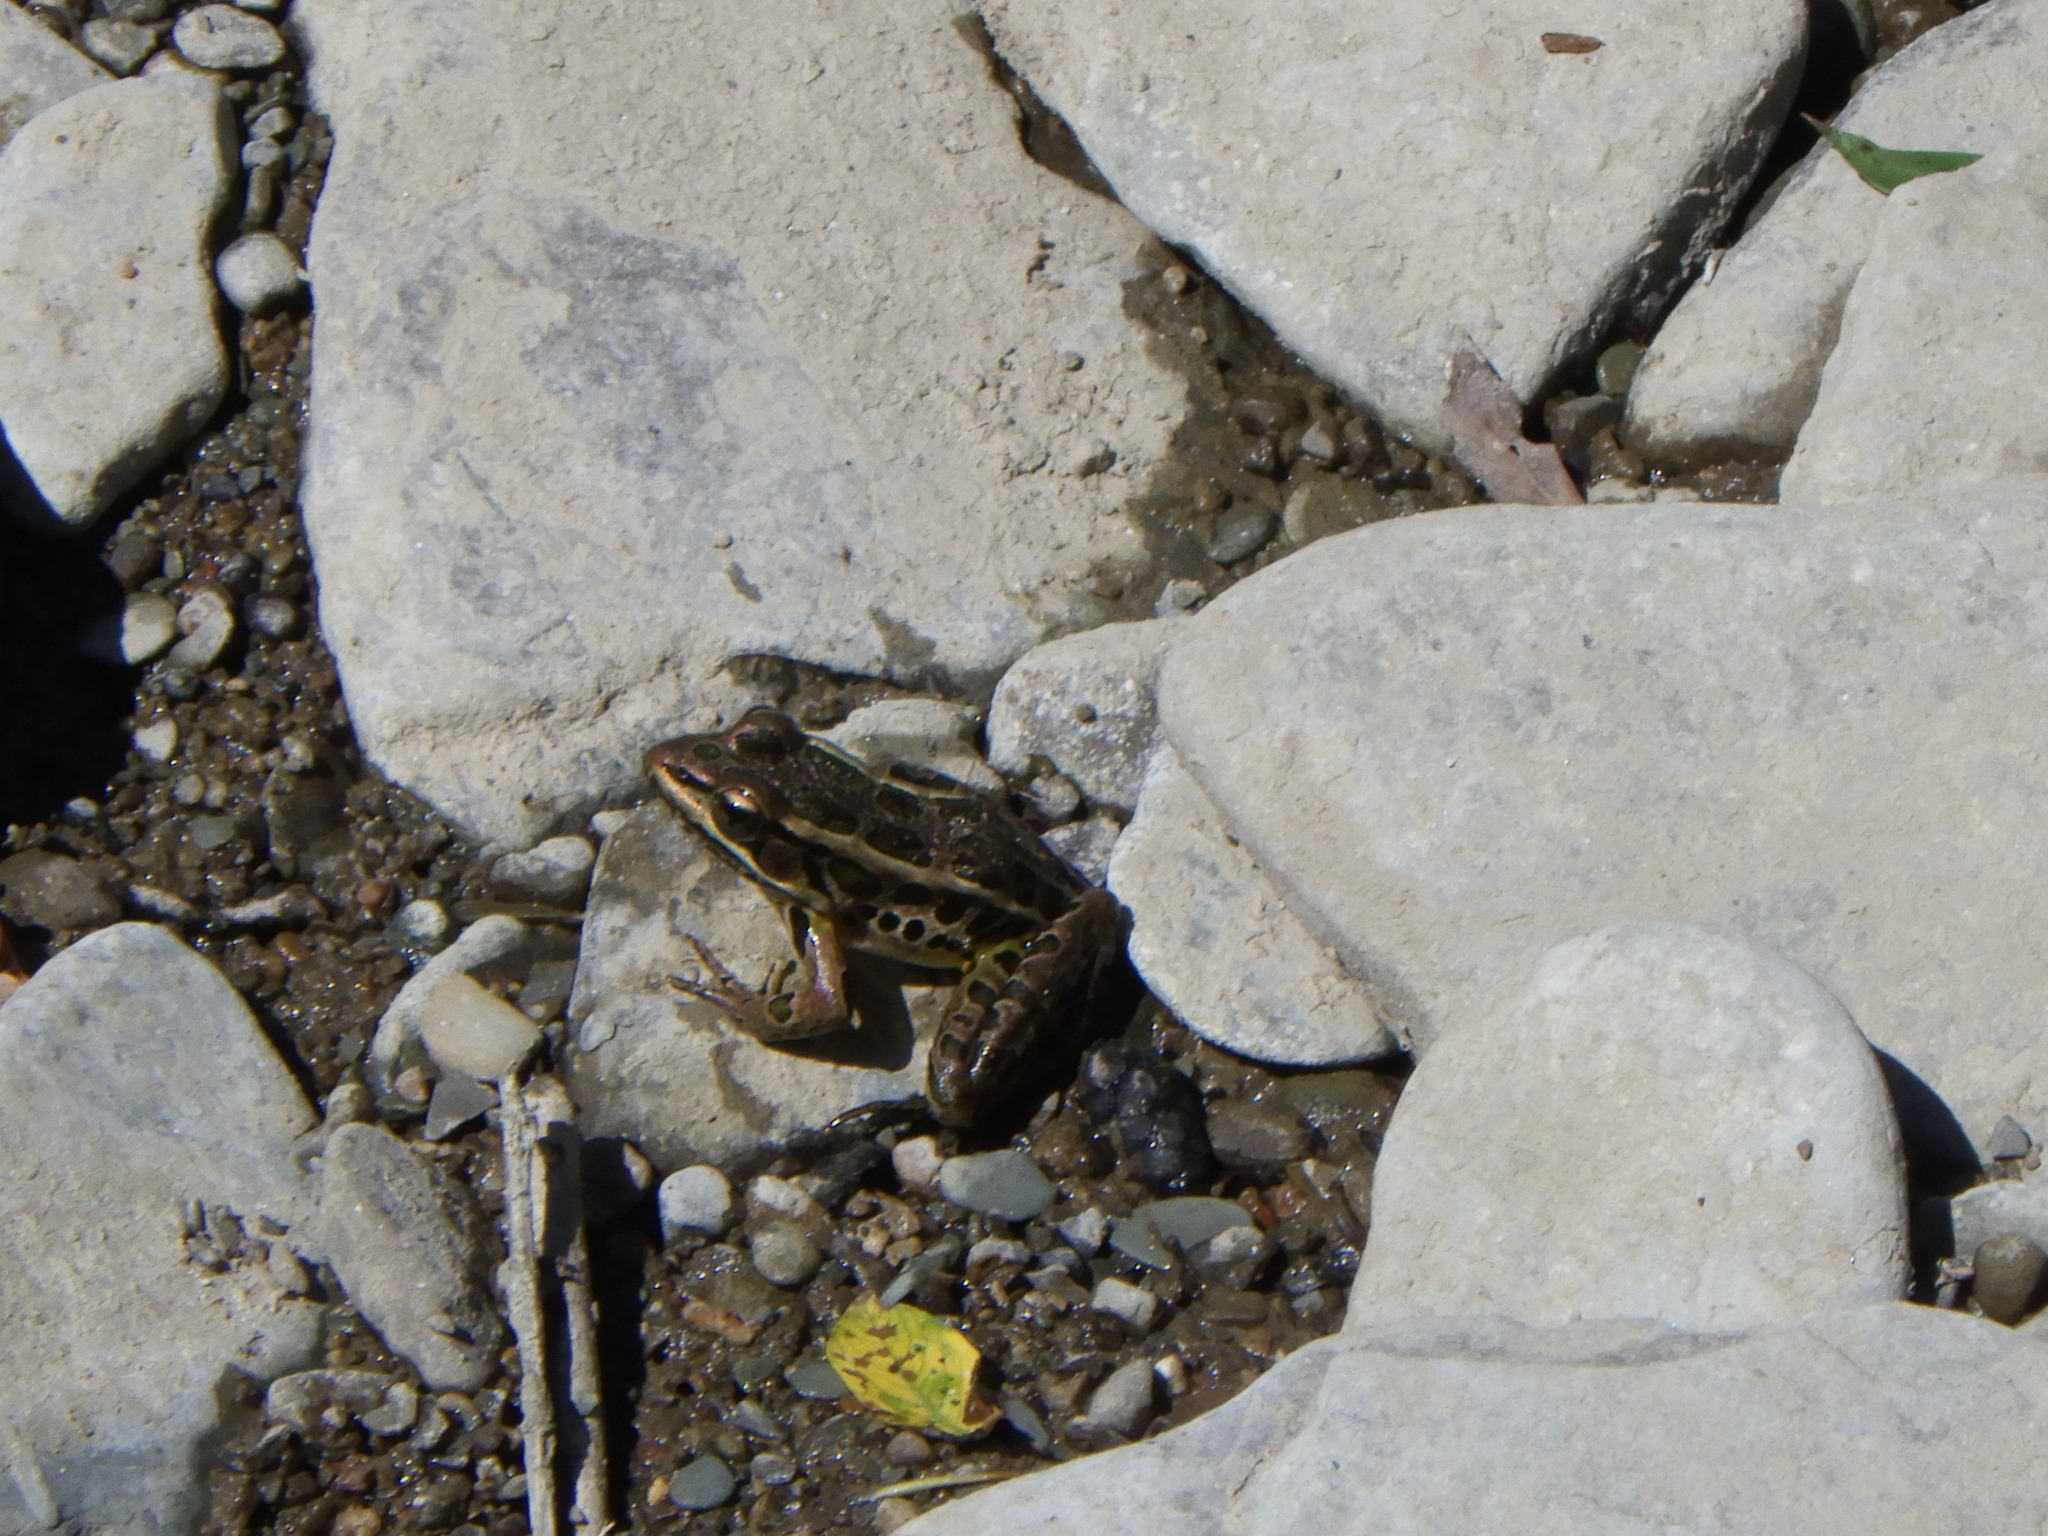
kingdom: Animalia
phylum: Chordata
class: Amphibia
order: Anura
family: Ranidae
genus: Lithobates
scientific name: Lithobates palustris
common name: Pickerel frog
